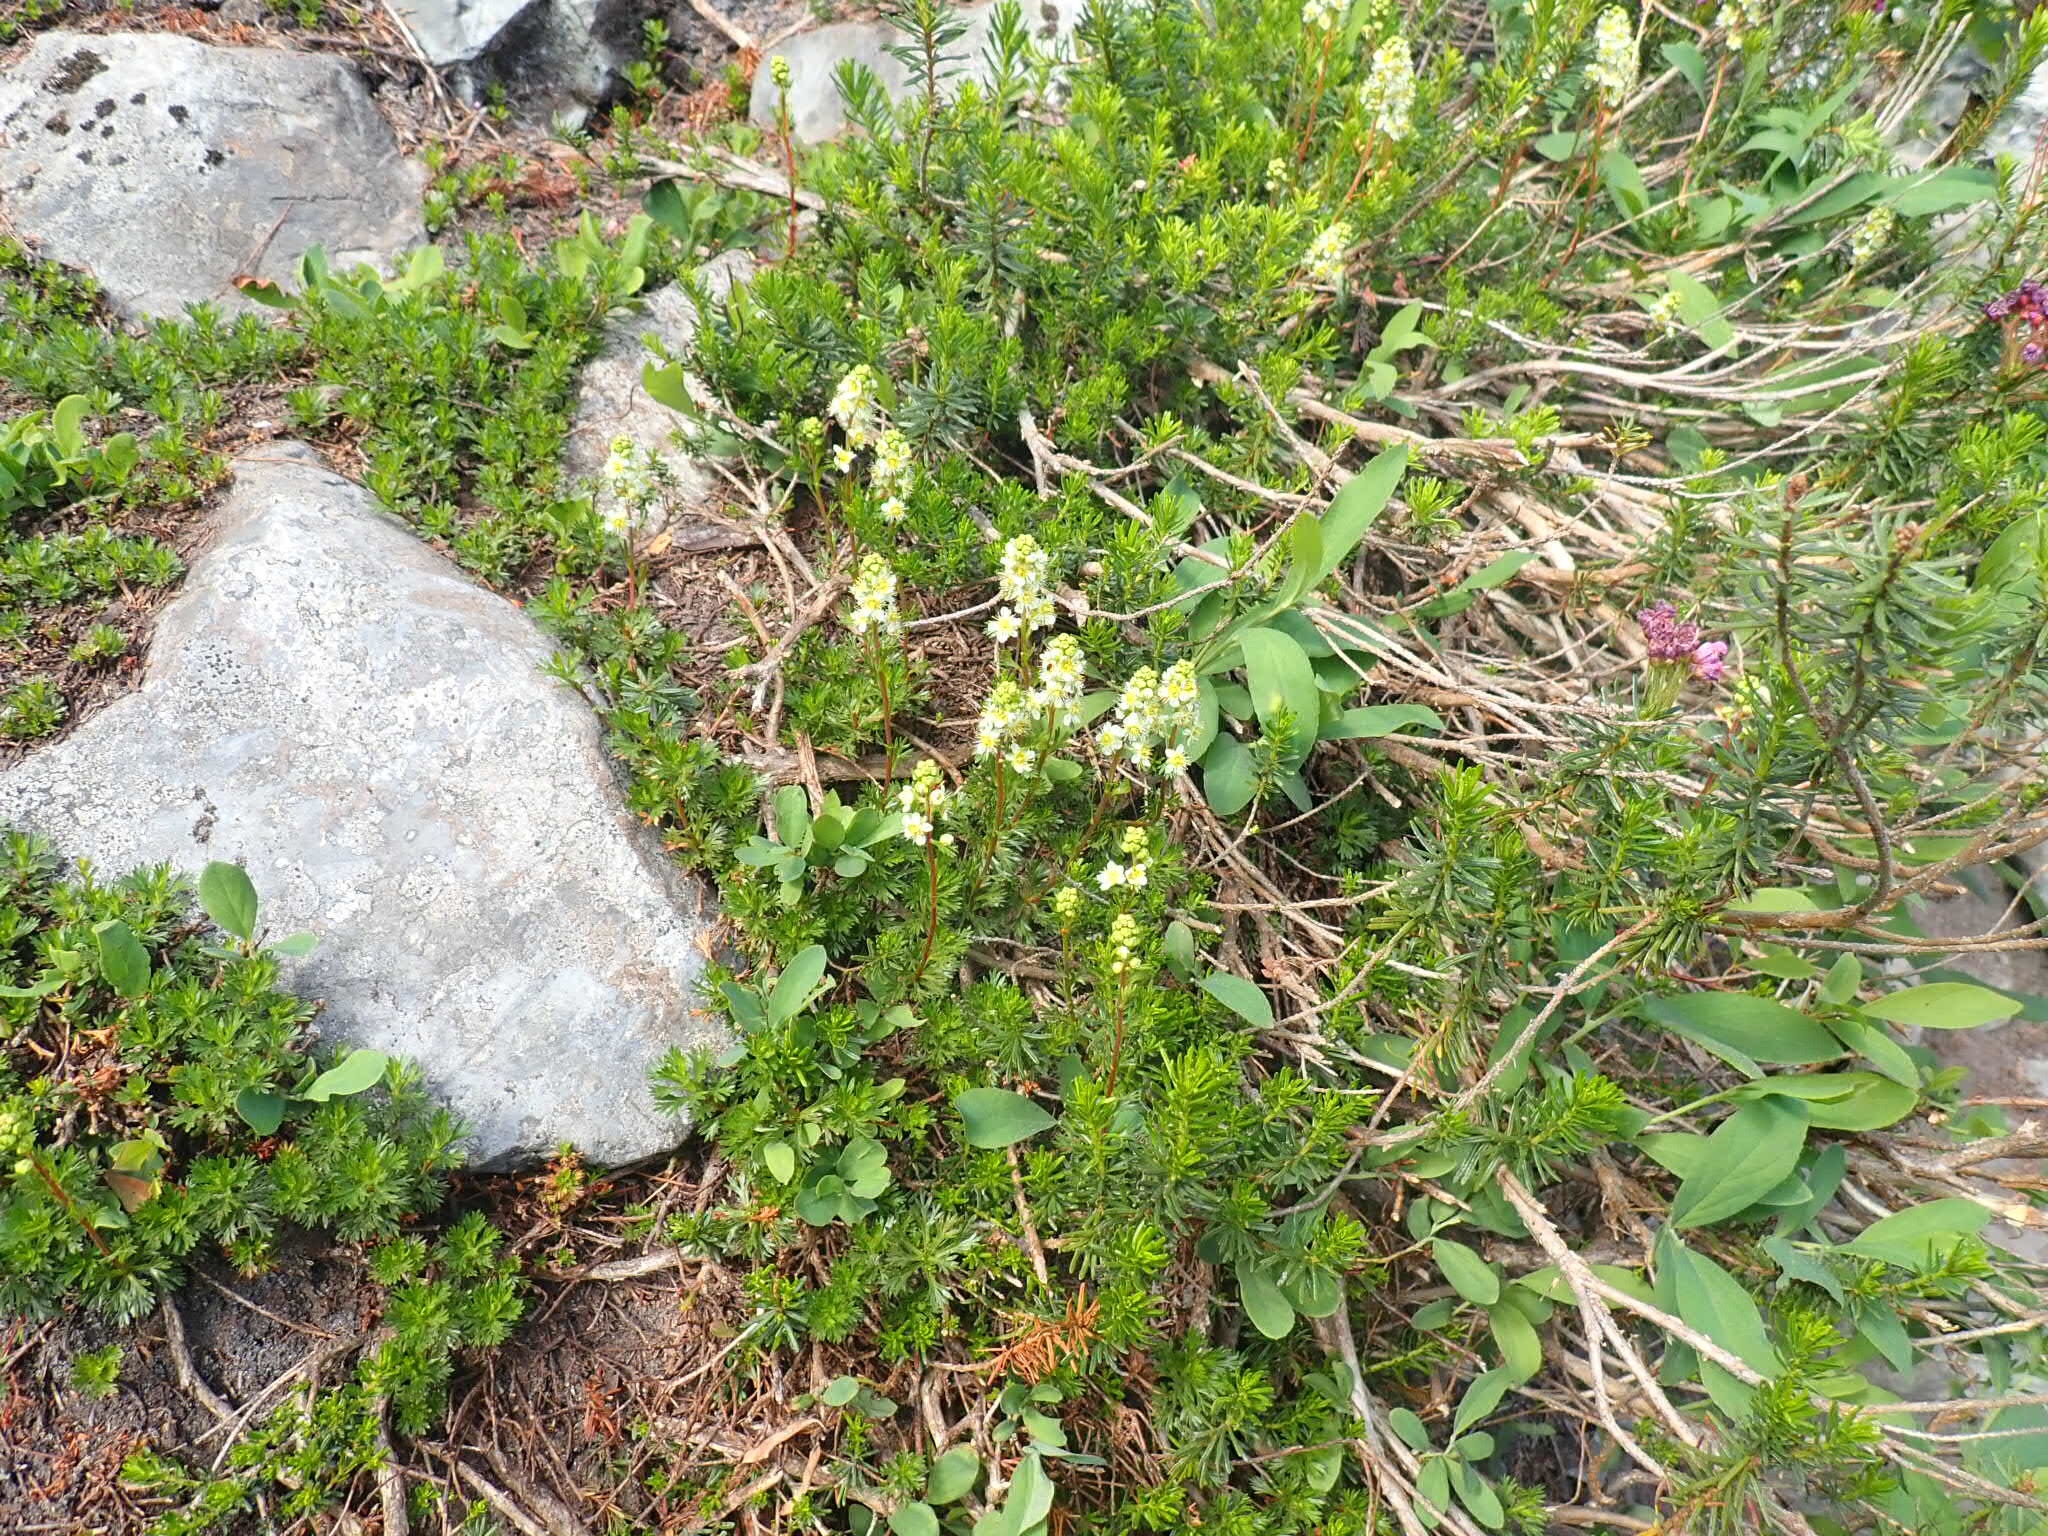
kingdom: Plantae
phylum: Tracheophyta
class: Magnoliopsida
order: Rosales
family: Rosaceae
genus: Luetkea
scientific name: Luetkea pectinata
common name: Partridgefoot
